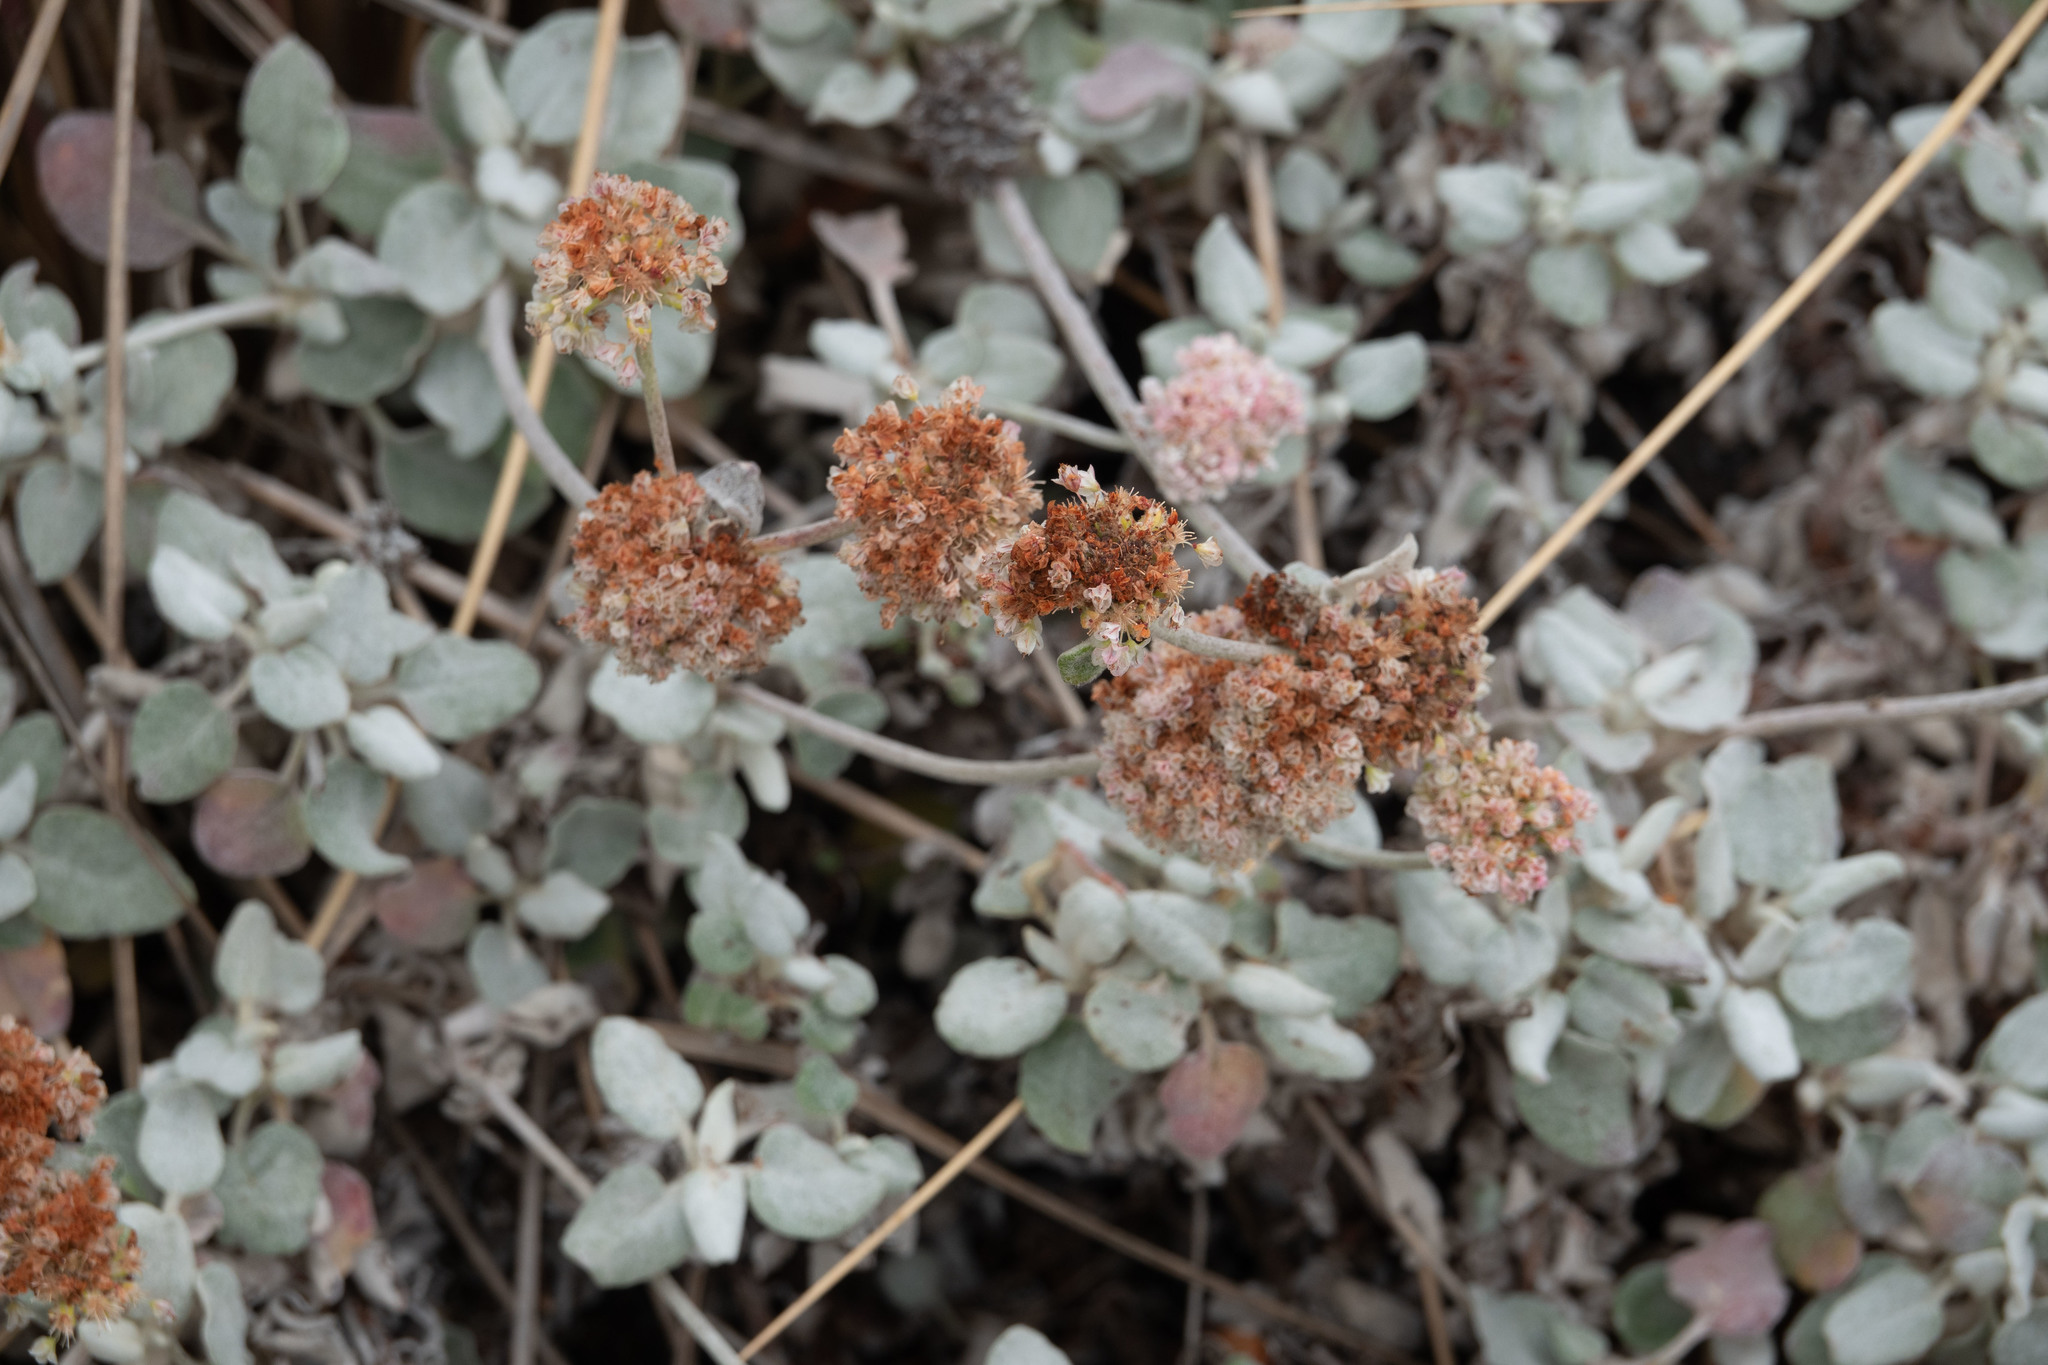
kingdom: Plantae
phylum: Tracheophyta
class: Magnoliopsida
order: Caryophyllales
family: Polygonaceae
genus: Eriogonum
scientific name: Eriogonum latifolium
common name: Seaside wild buckwheat
